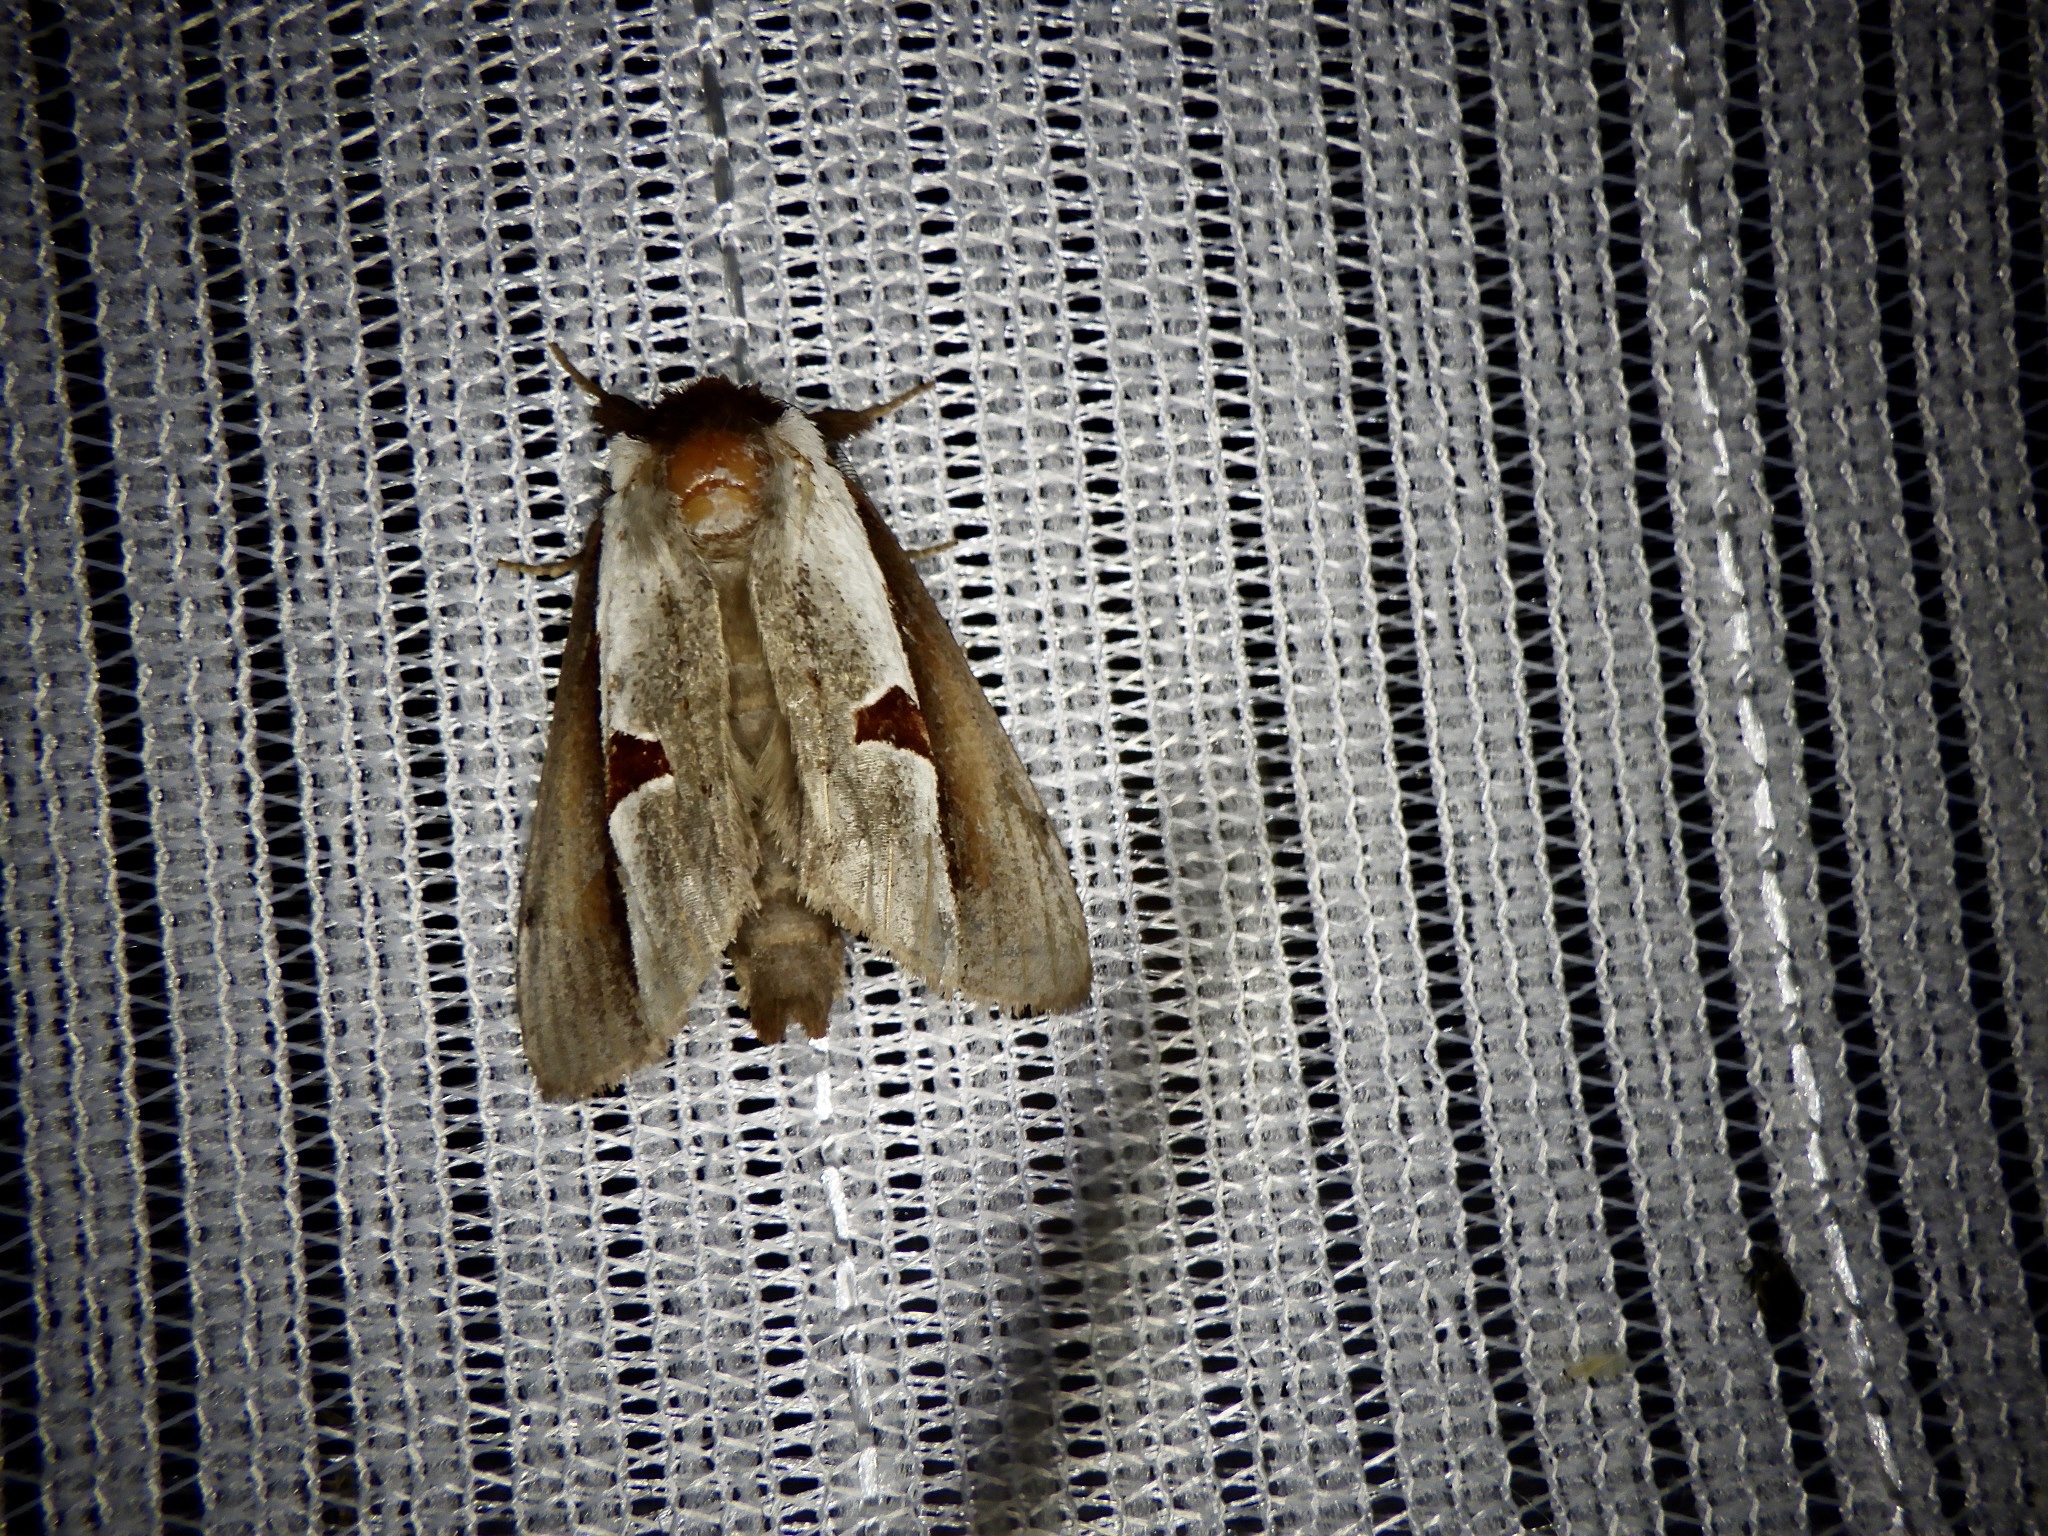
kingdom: Animalia
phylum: Arthropoda
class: Insecta
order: Lepidoptera
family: Notodontidae
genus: Nerice
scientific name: Nerice bipartita
